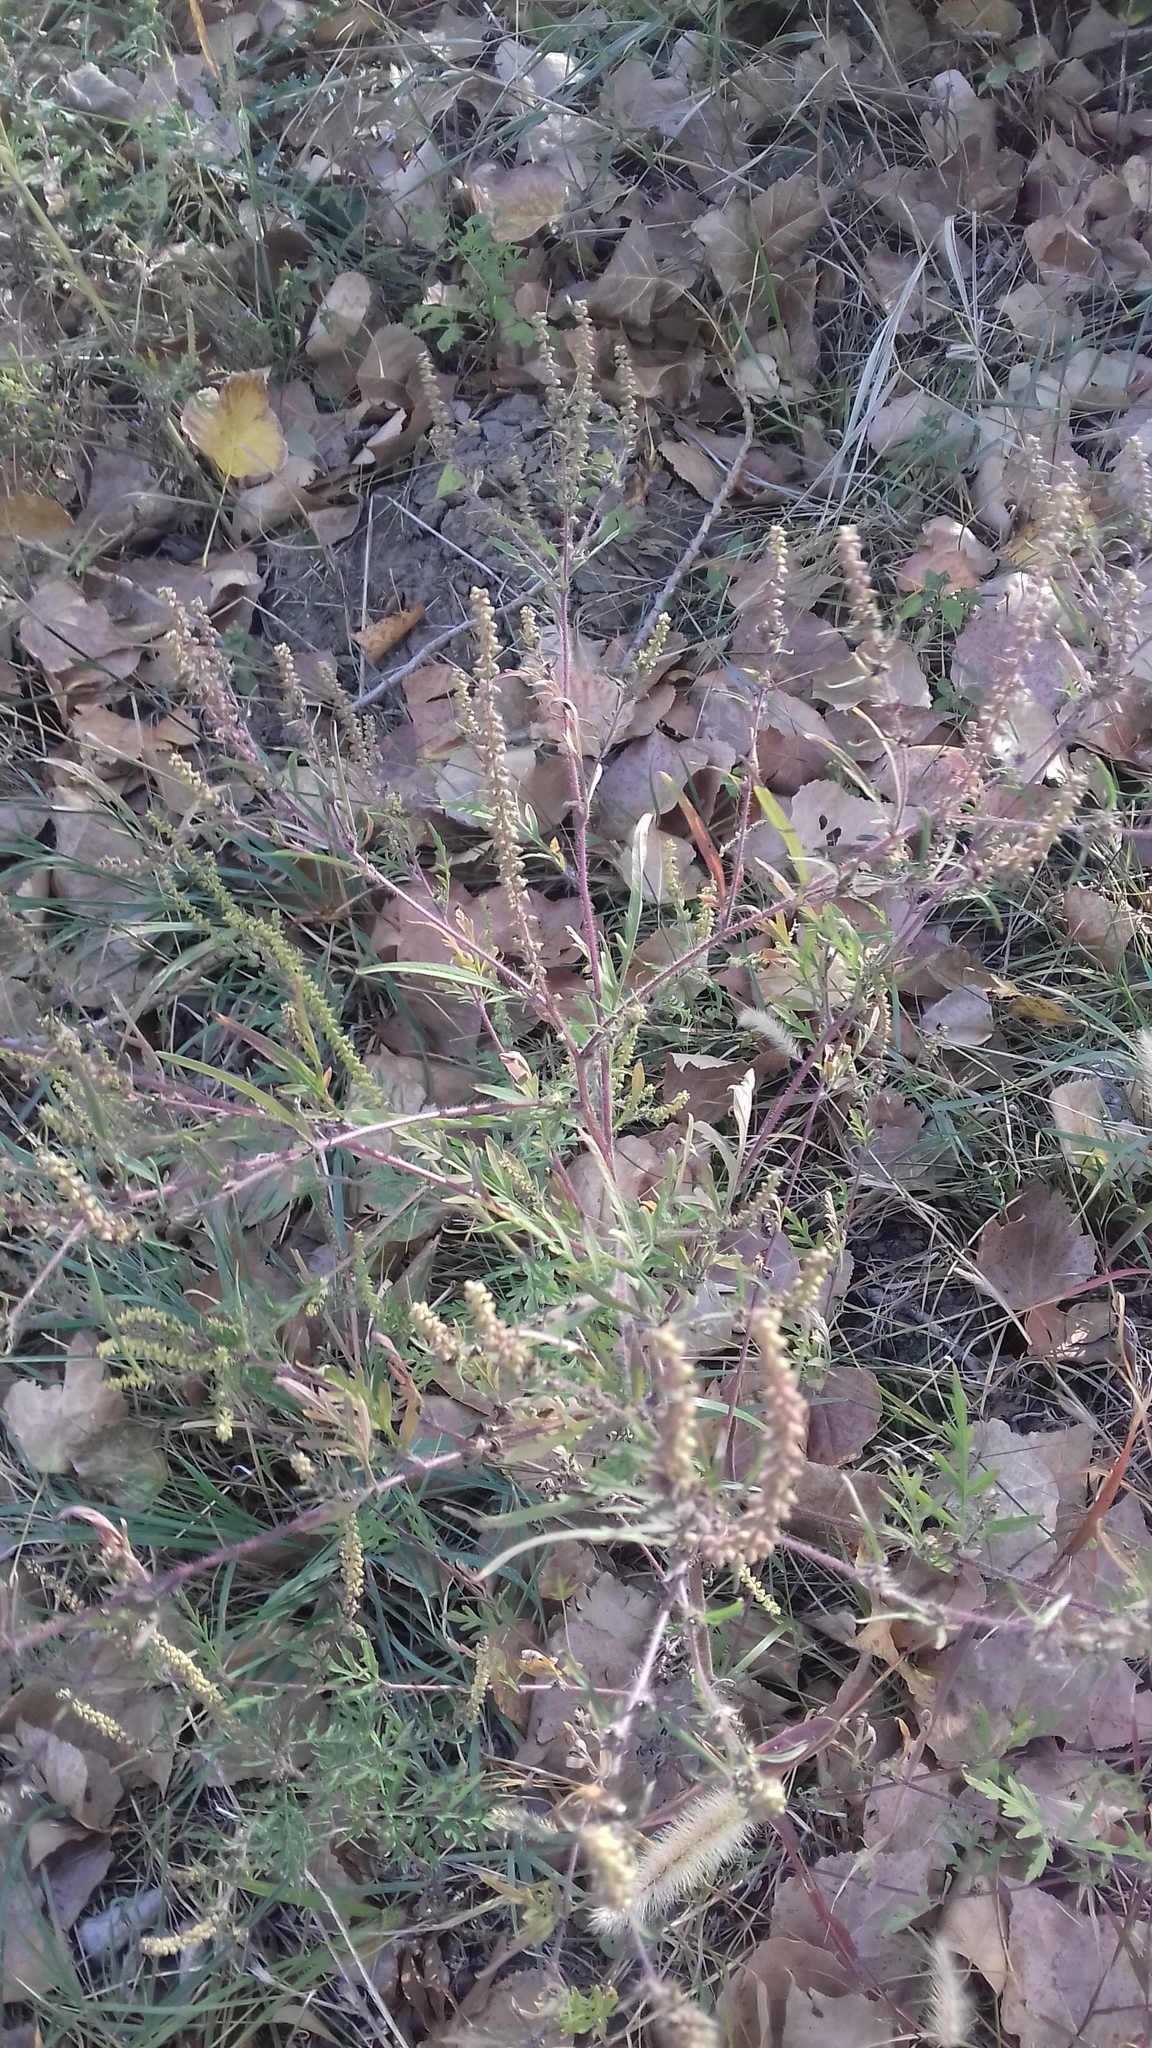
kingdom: Plantae
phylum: Tracheophyta
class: Magnoliopsida
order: Asterales
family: Asteraceae
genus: Ambrosia
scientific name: Ambrosia artemisiifolia
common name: Annual ragweed
